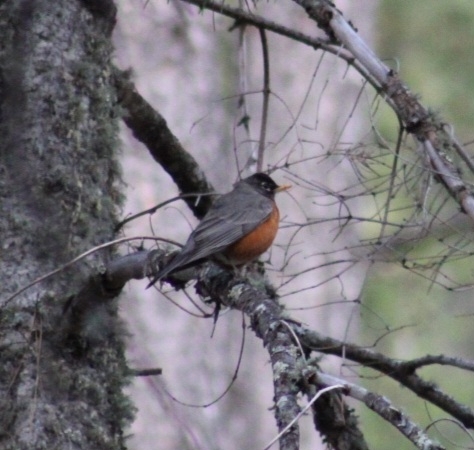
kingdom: Animalia
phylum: Chordata
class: Aves
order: Passeriformes
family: Turdidae
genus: Turdus
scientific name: Turdus migratorius
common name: American robin
